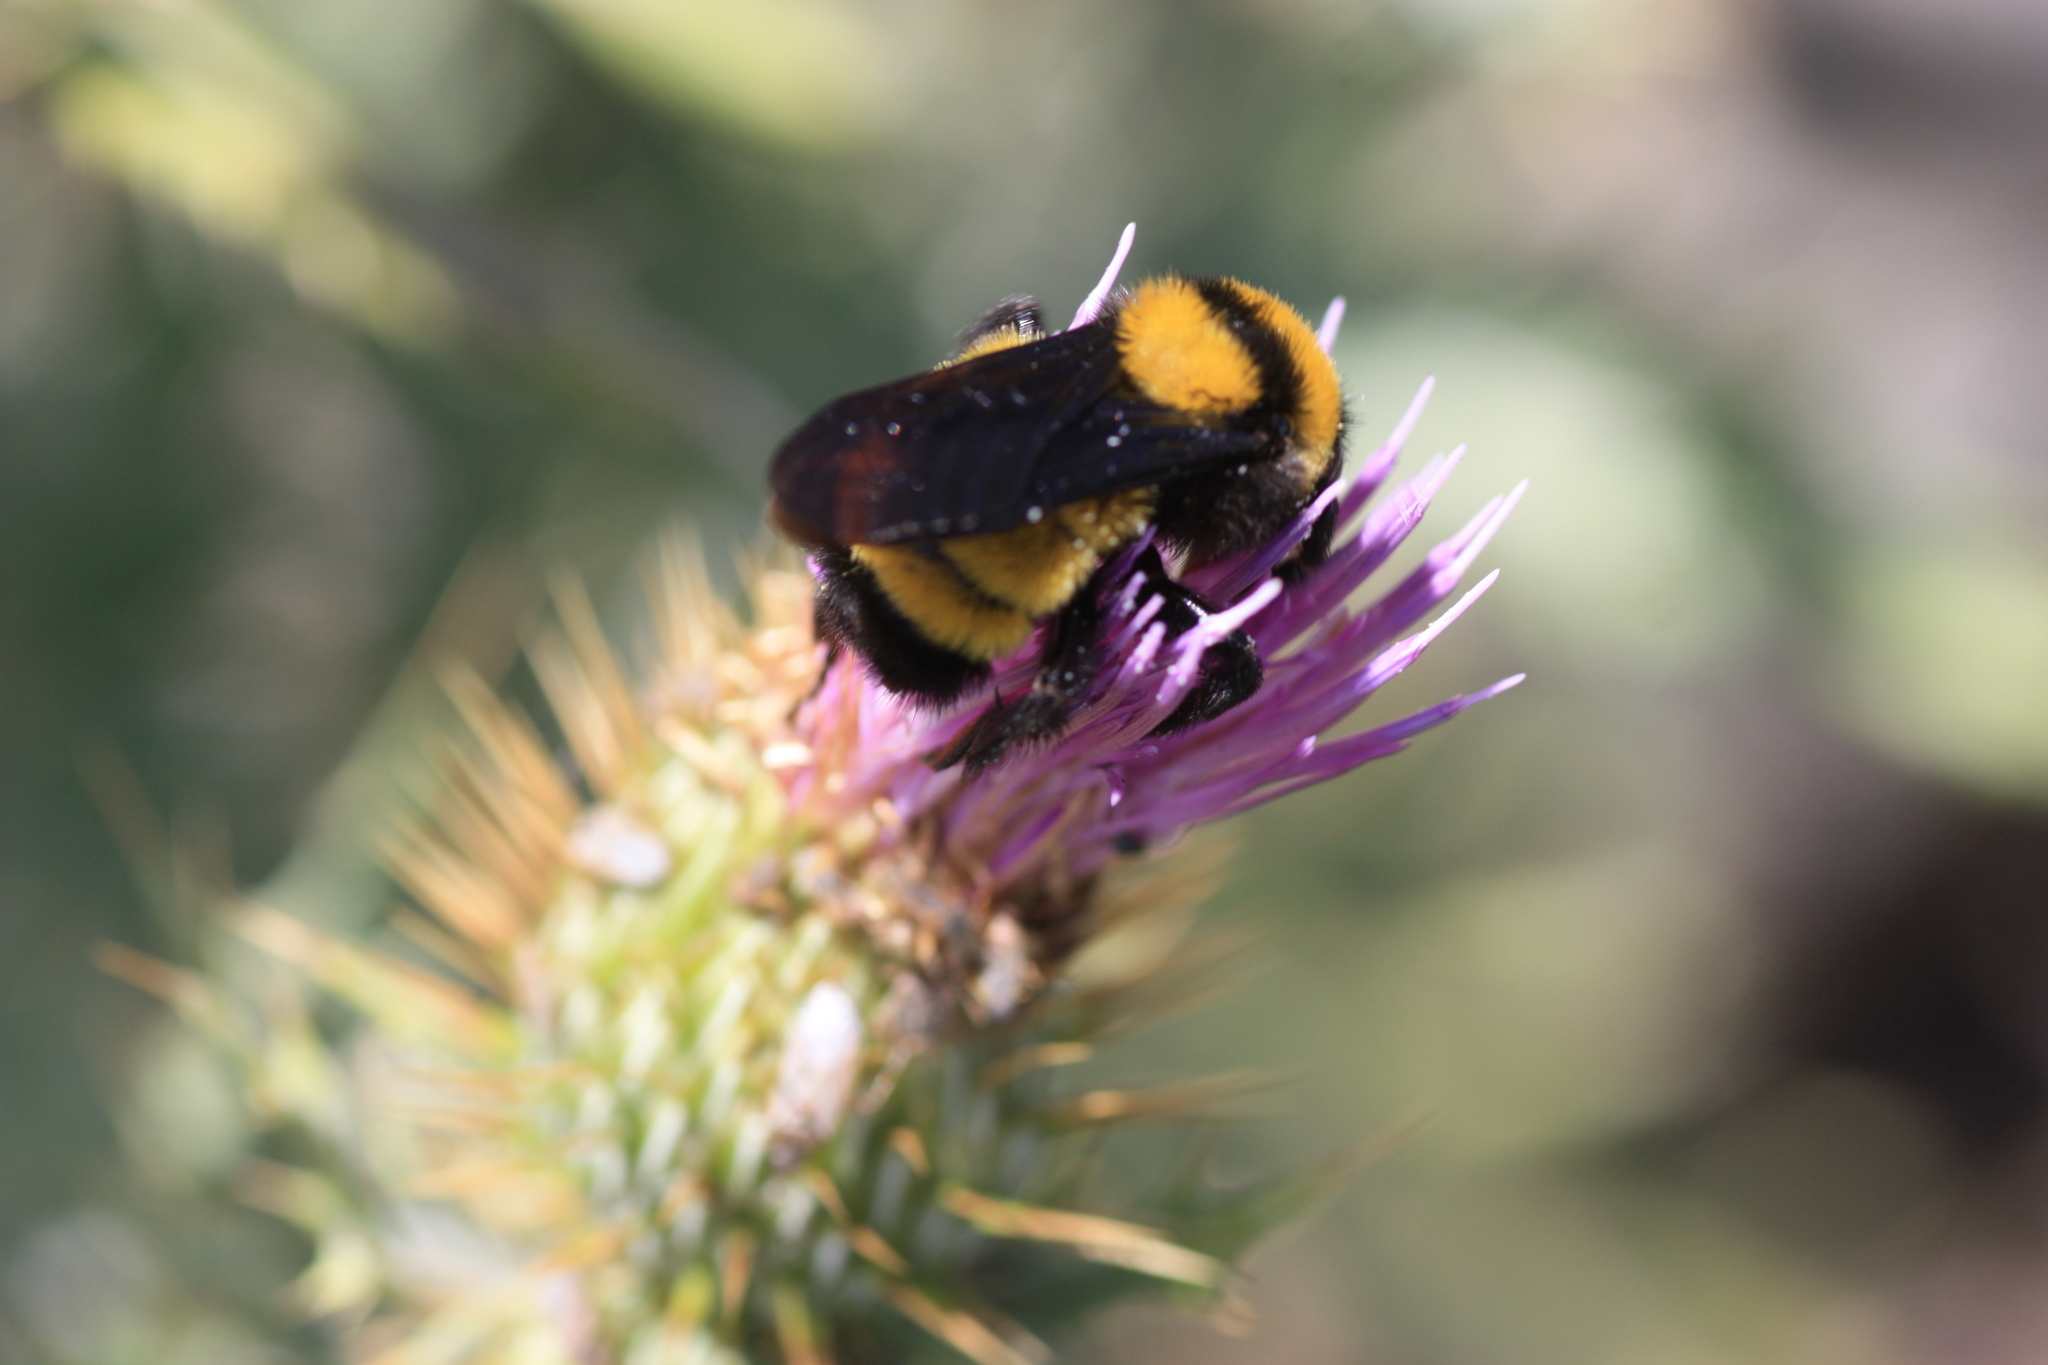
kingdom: Animalia
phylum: Arthropoda
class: Insecta
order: Hymenoptera
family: Apidae
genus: Bombus
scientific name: Bombus sonorus
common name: Sonoran bumble bee
